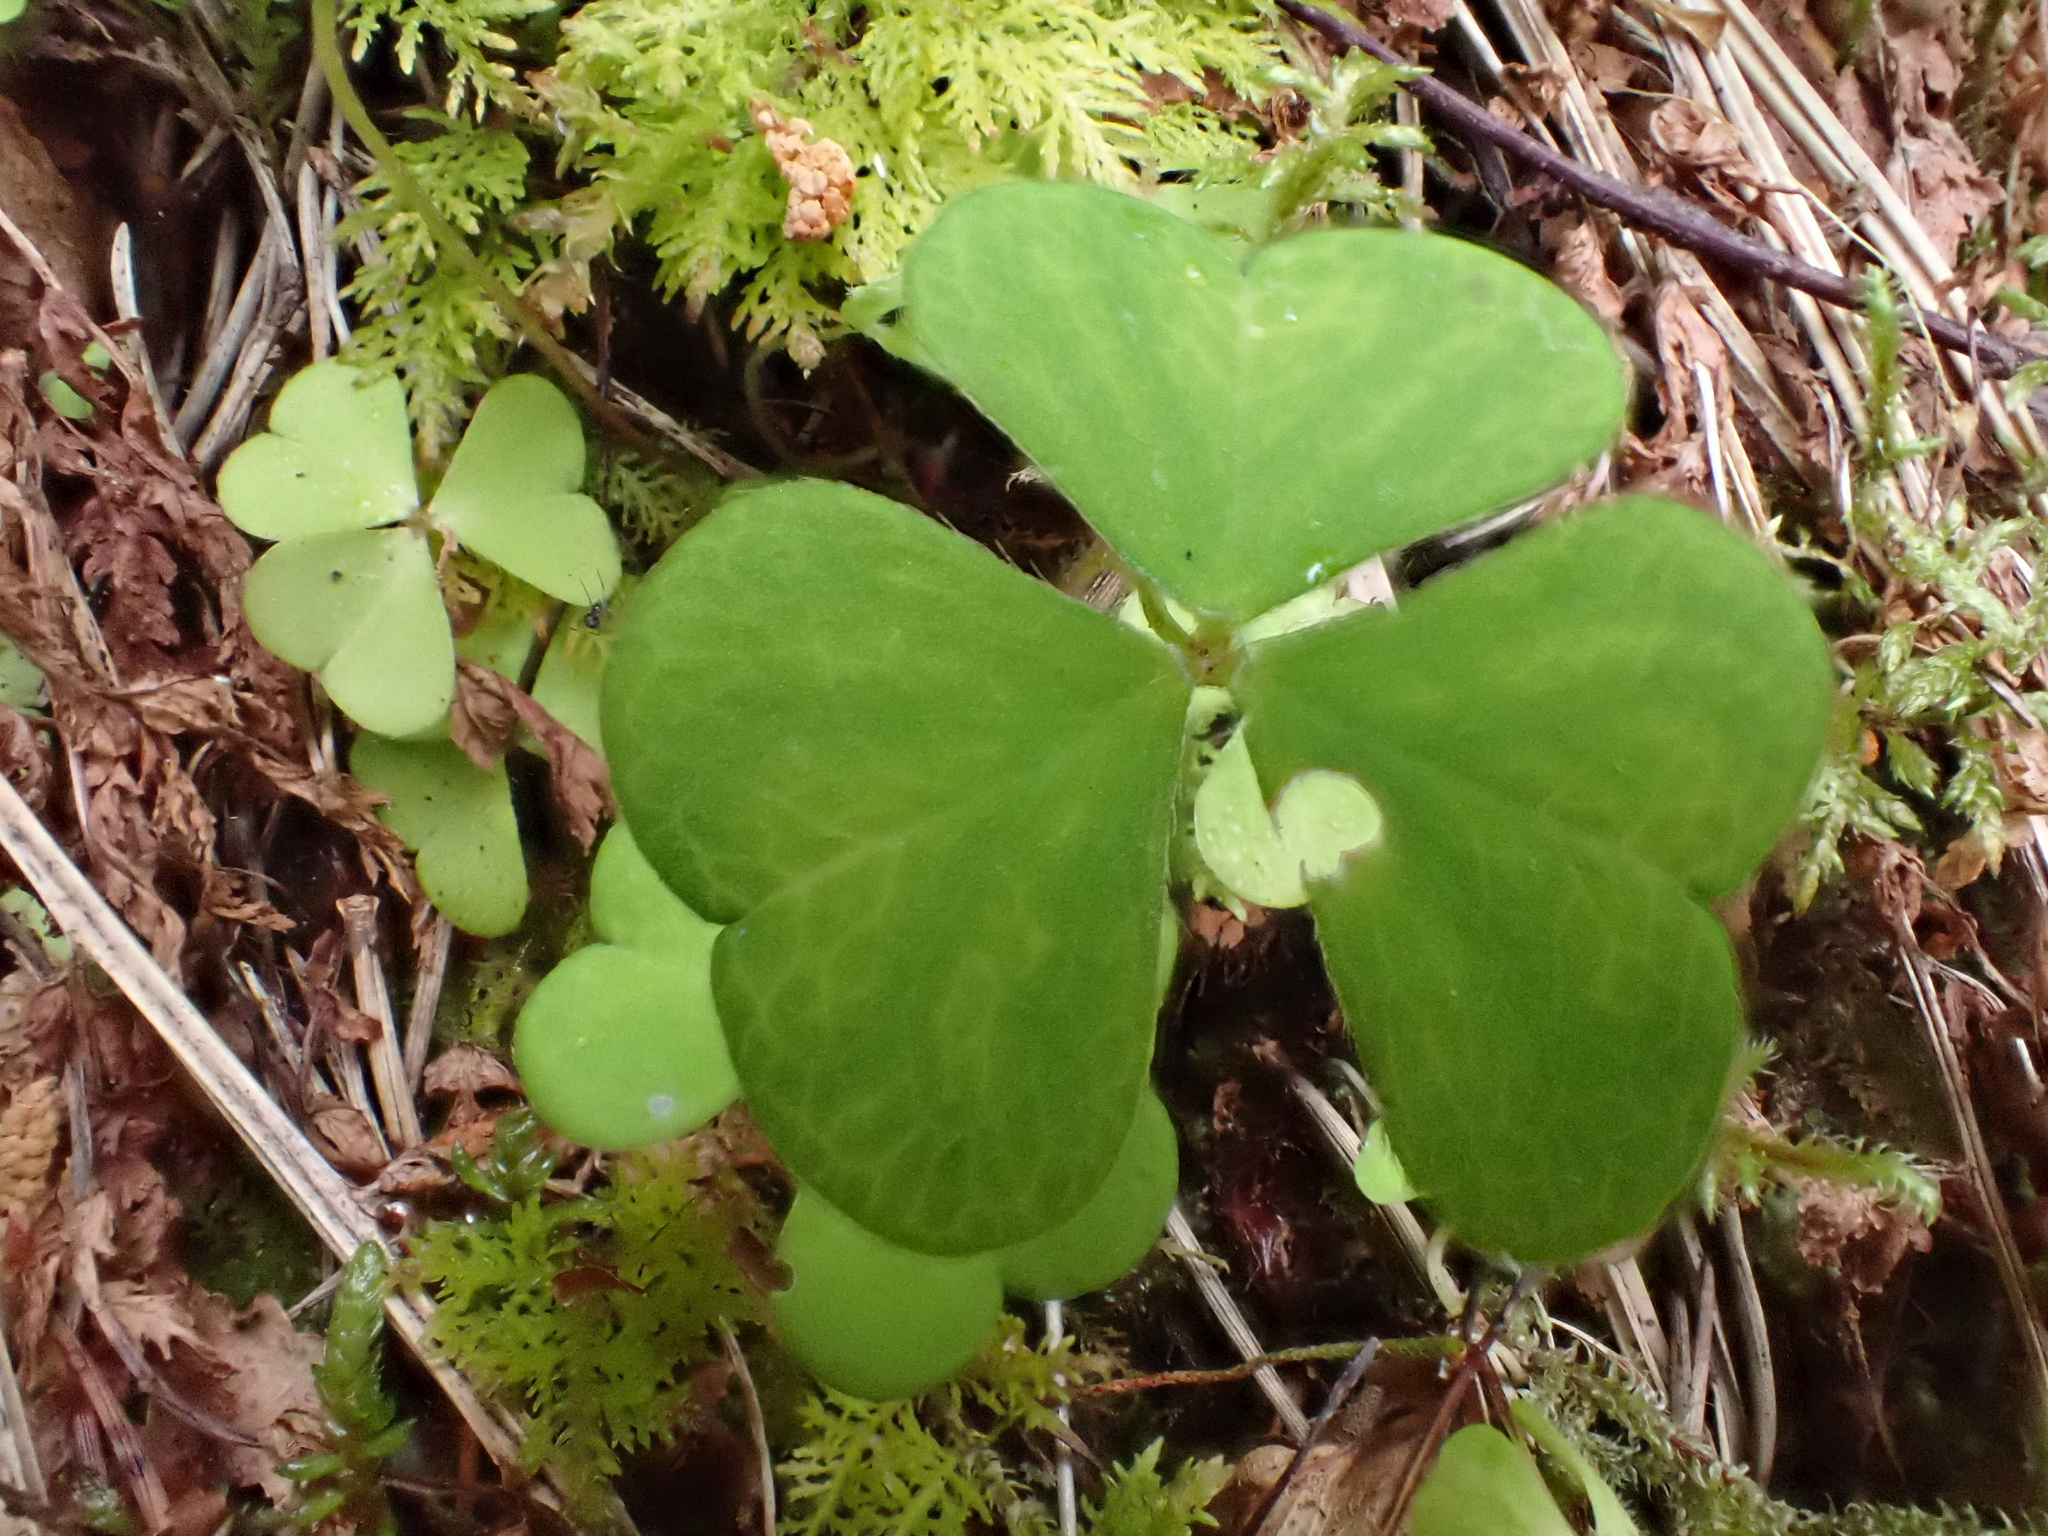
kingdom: Plantae
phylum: Tracheophyta
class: Magnoliopsida
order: Oxalidales
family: Oxalidaceae
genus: Oxalis
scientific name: Oxalis acetosella
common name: Wood-sorrel
